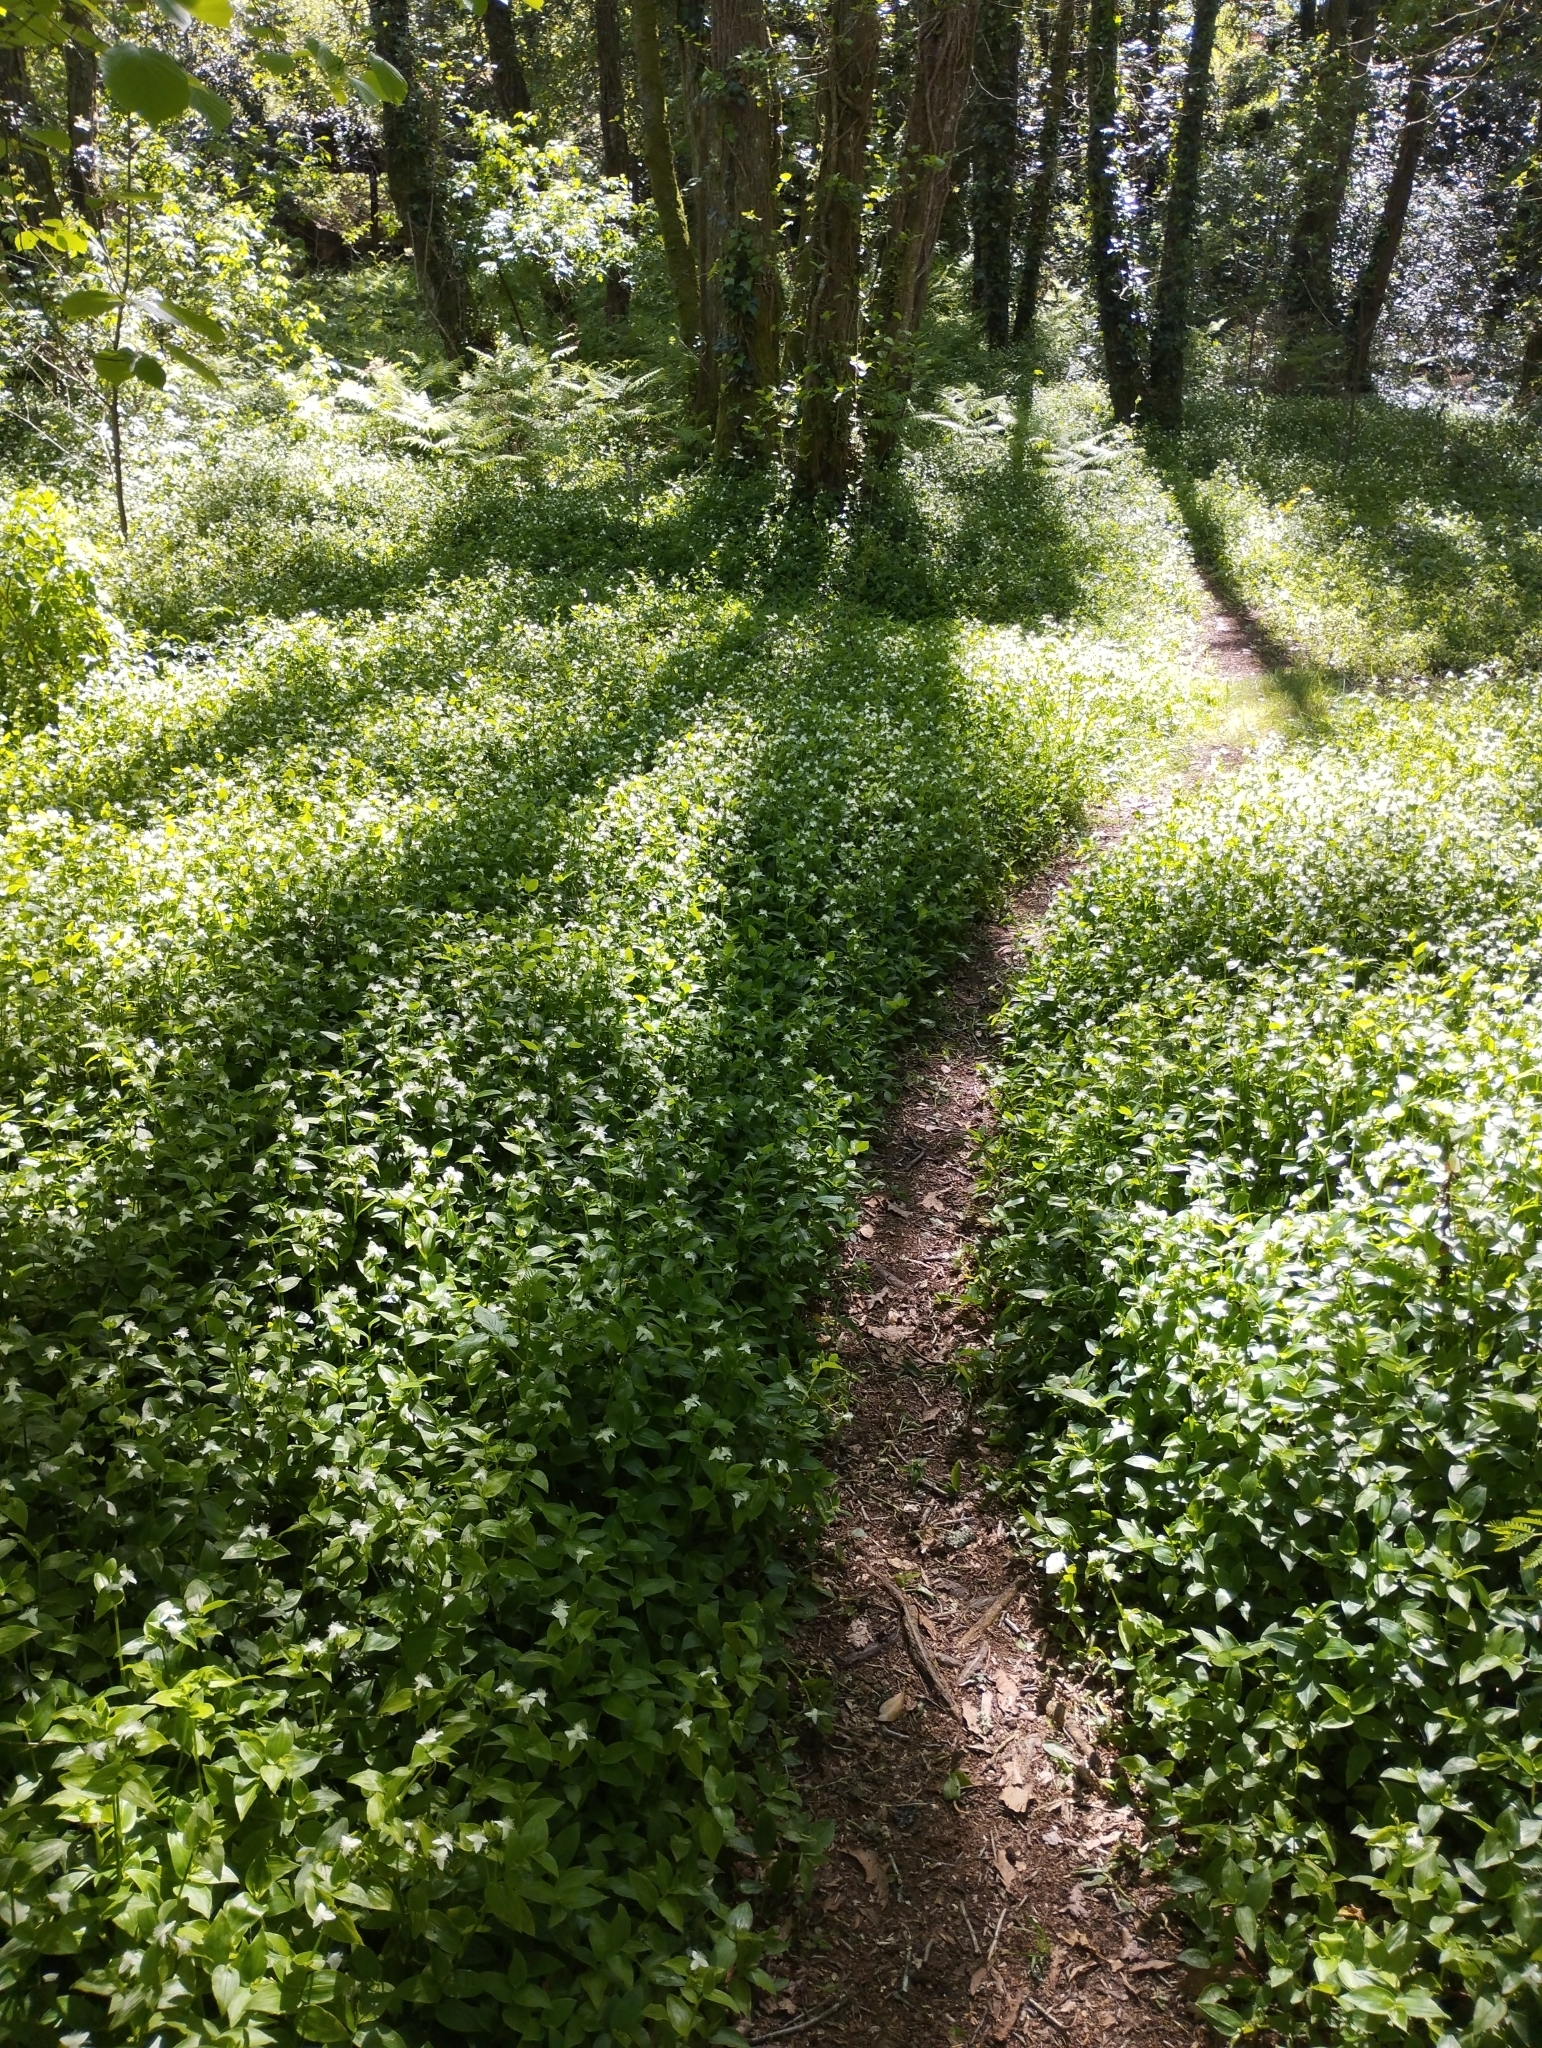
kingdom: Plantae
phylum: Tracheophyta
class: Liliopsida
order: Commelinales
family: Commelinaceae
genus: Tradescantia
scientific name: Tradescantia fluminensis
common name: Wandering-jew
